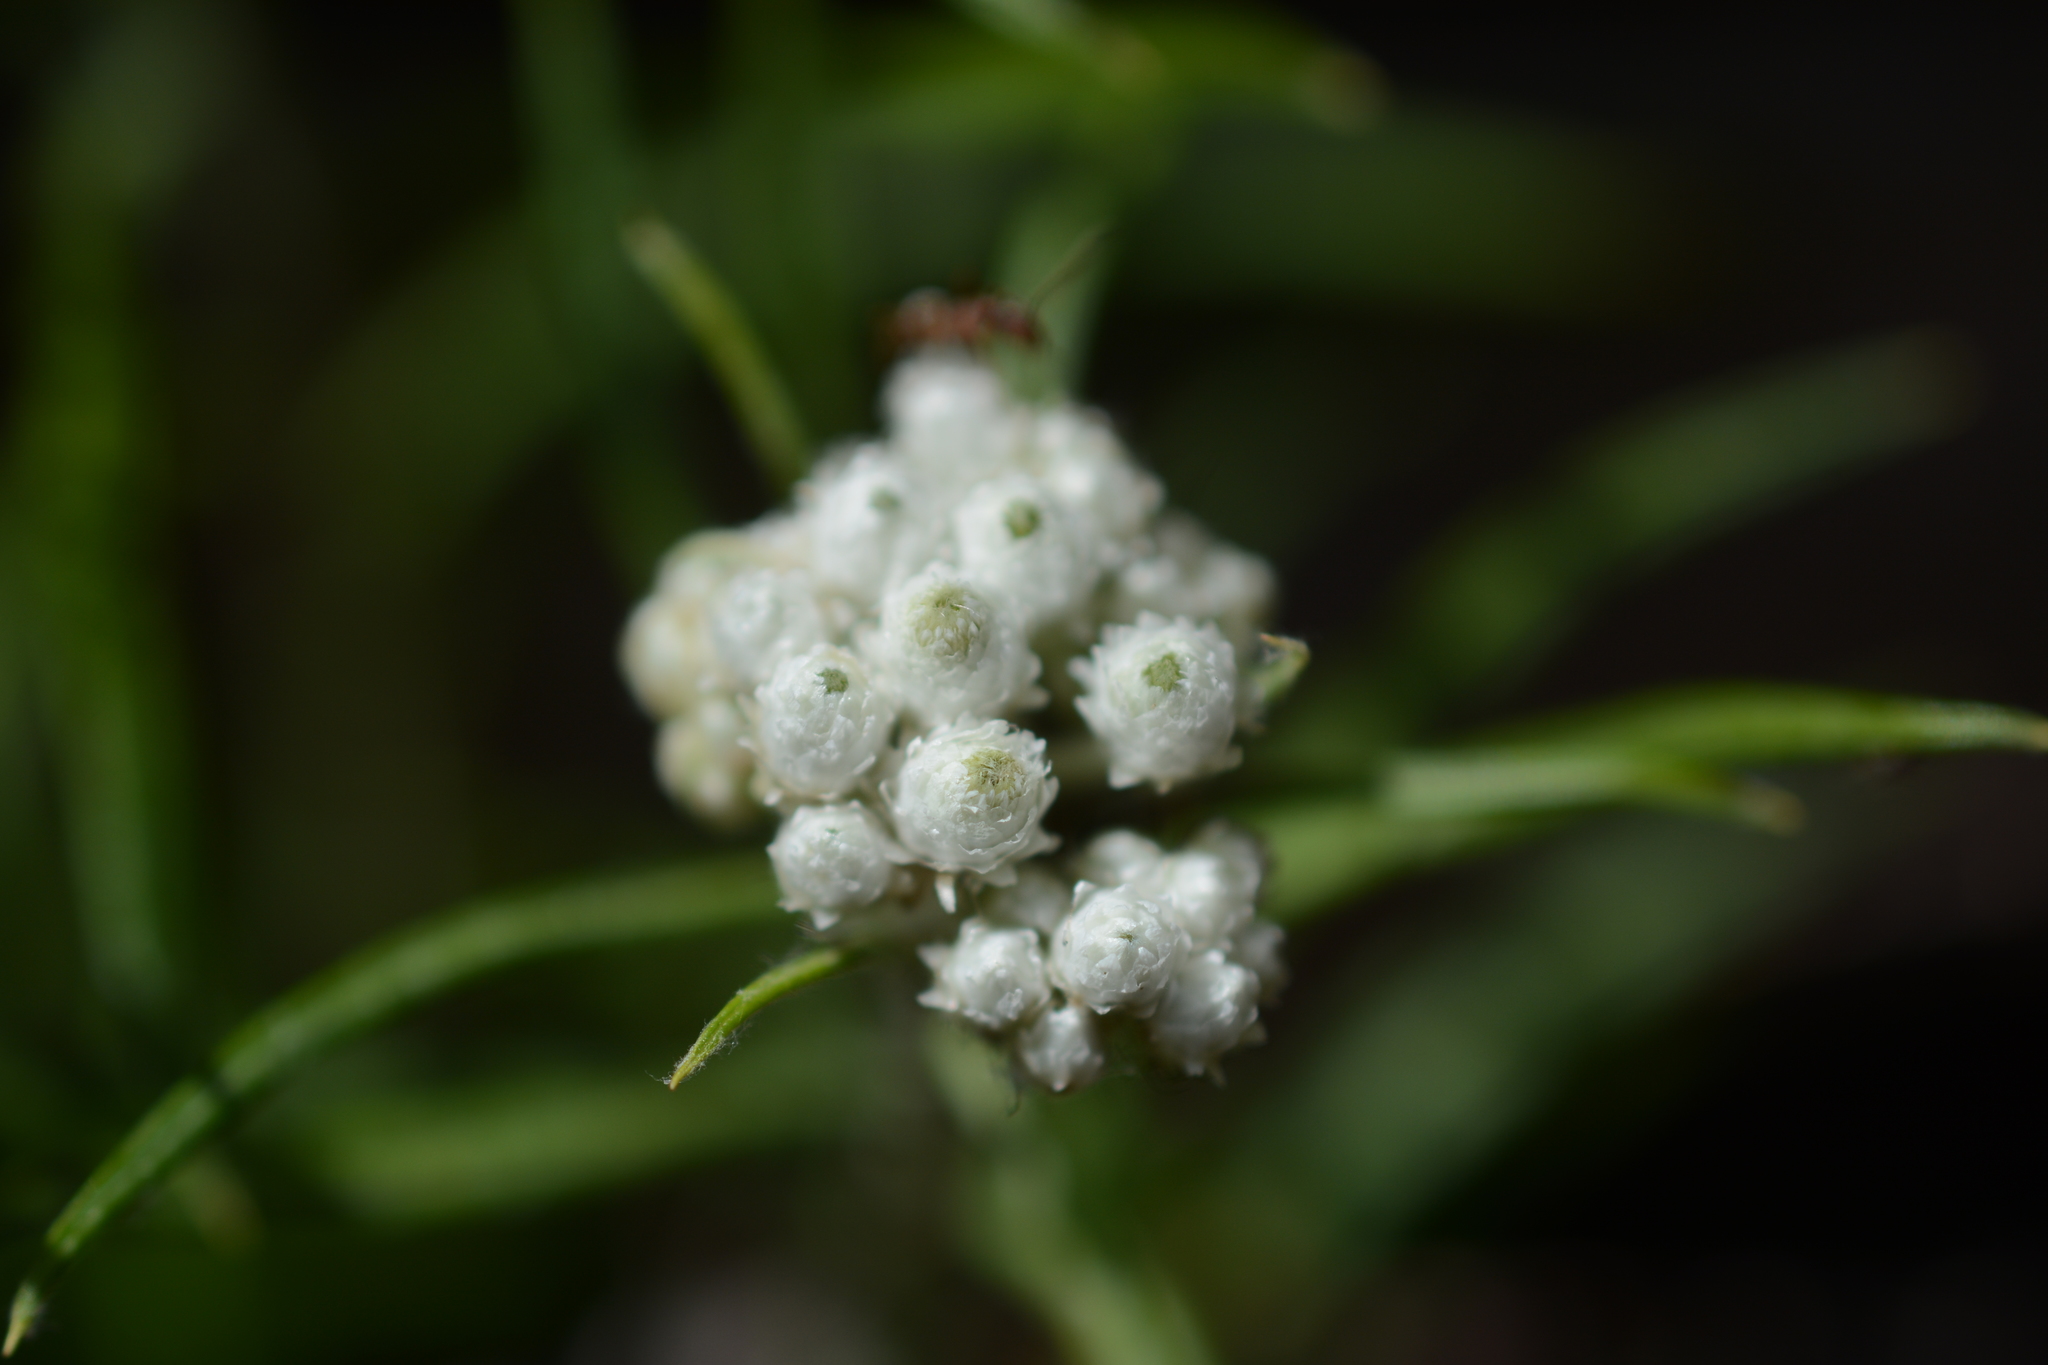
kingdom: Plantae
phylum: Tracheophyta
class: Magnoliopsida
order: Asterales
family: Asteraceae
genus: Anaphalis
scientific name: Anaphalis margaritacea
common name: Pearly everlasting
